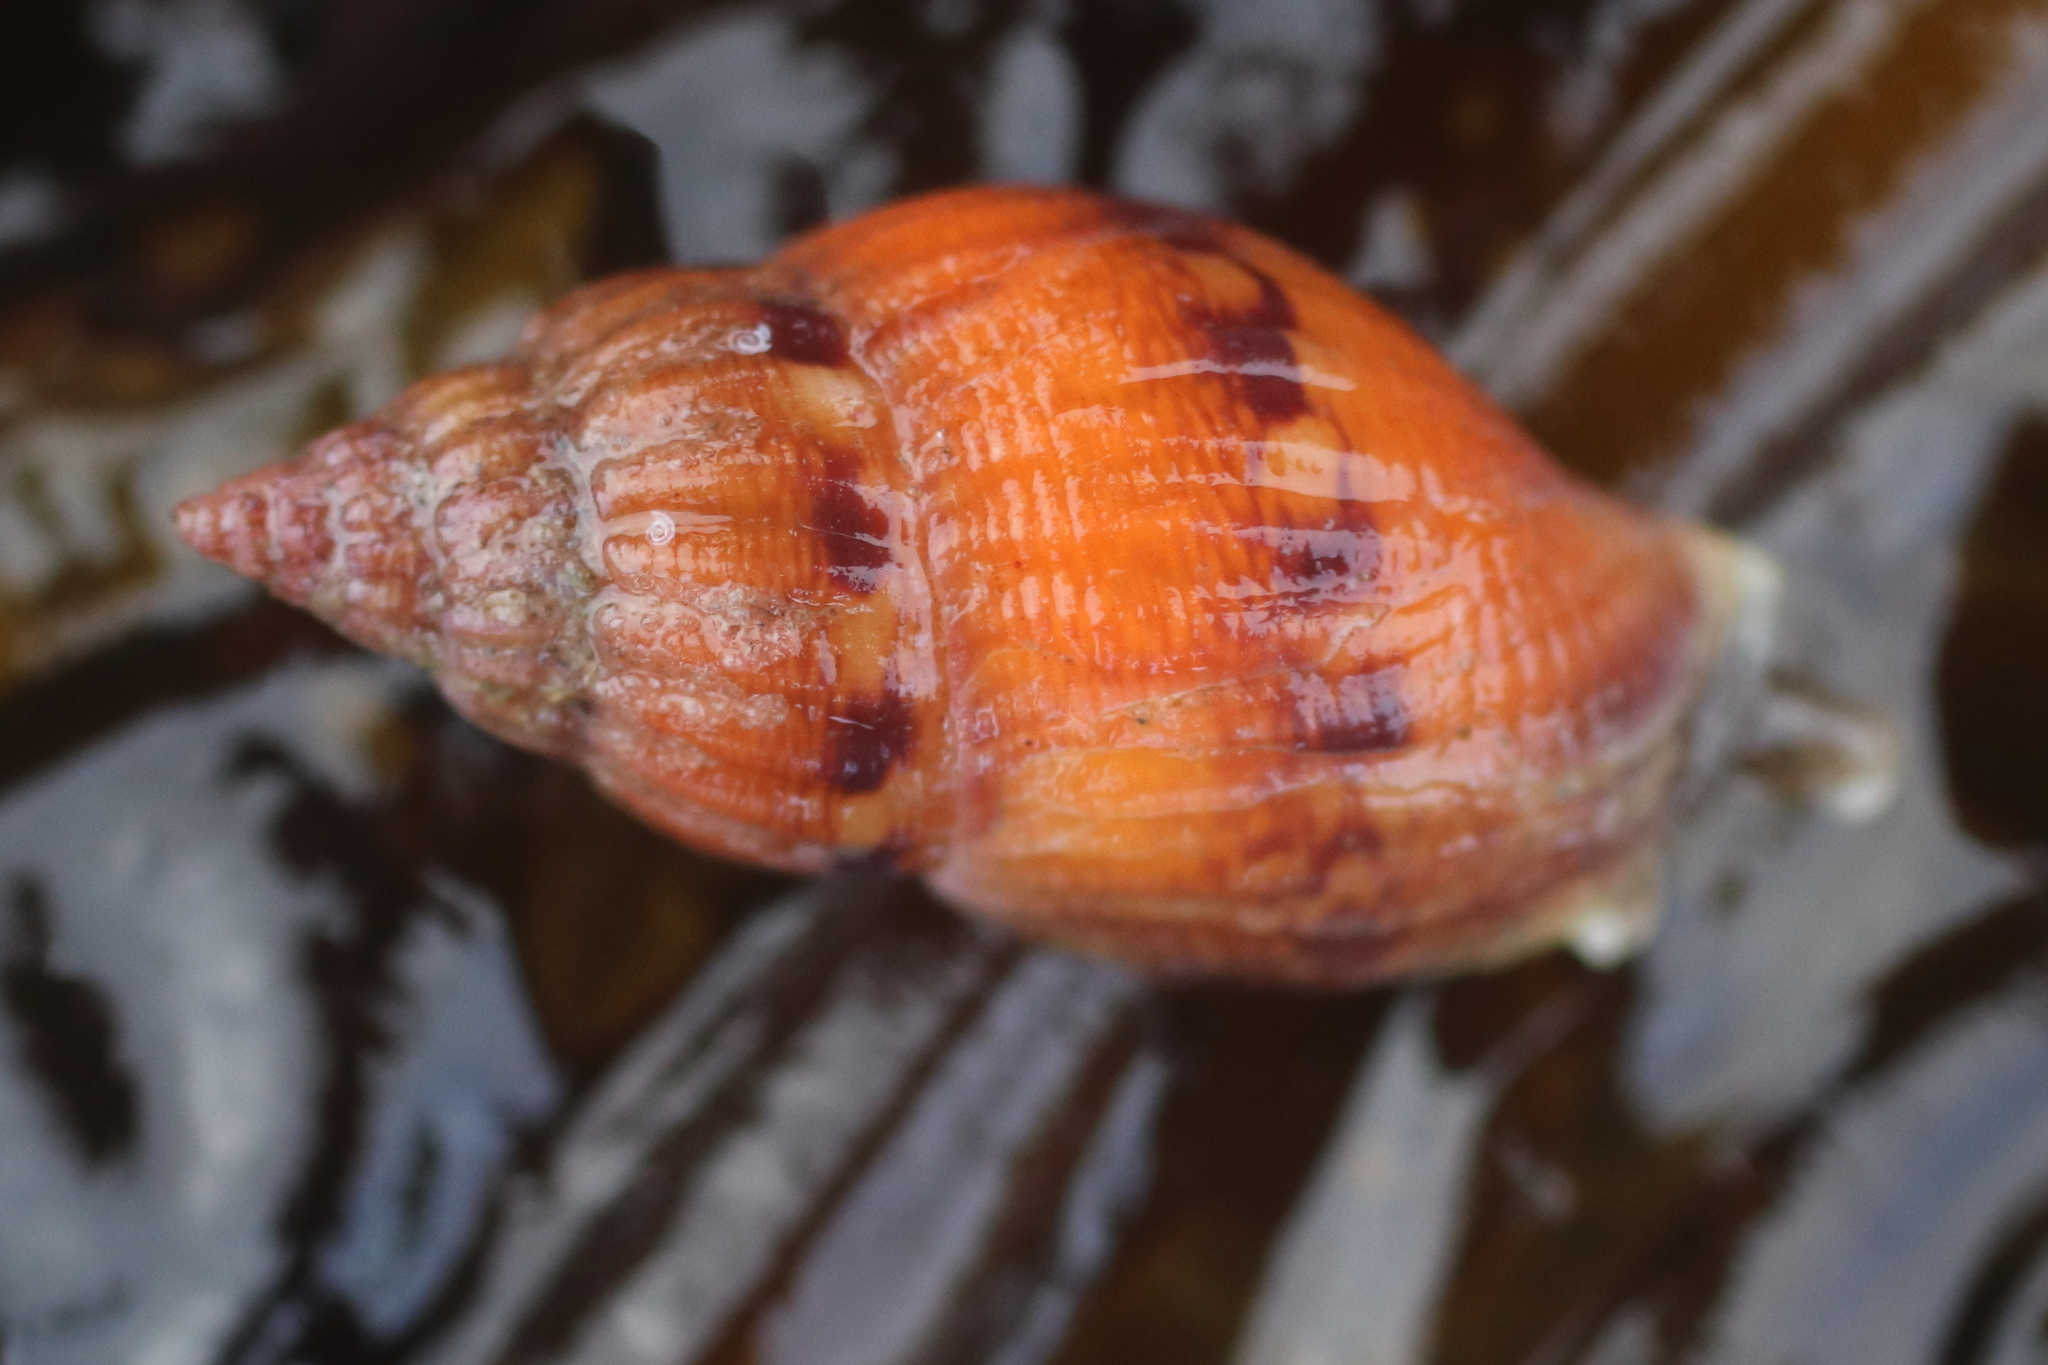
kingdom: Animalia
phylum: Mollusca
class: Gastropoda
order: Neogastropoda
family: Columbellidae
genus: Amphissa
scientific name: Amphissa columbiana
